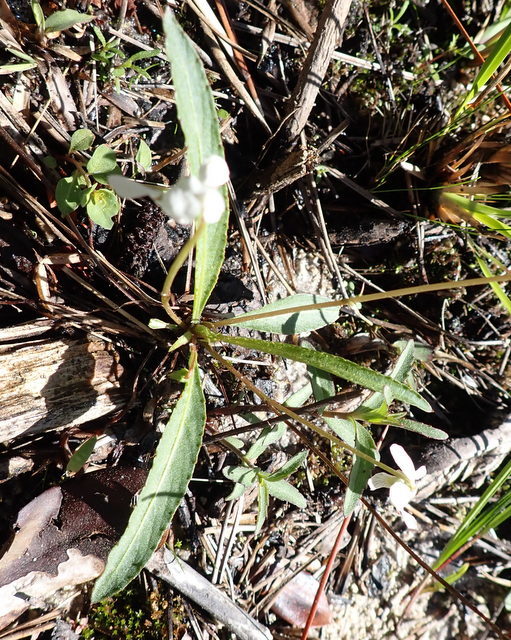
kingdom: Plantae
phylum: Tracheophyta
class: Magnoliopsida
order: Malpighiales
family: Violaceae
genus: Viola
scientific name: Viola lanceolata
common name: Bog white violet
